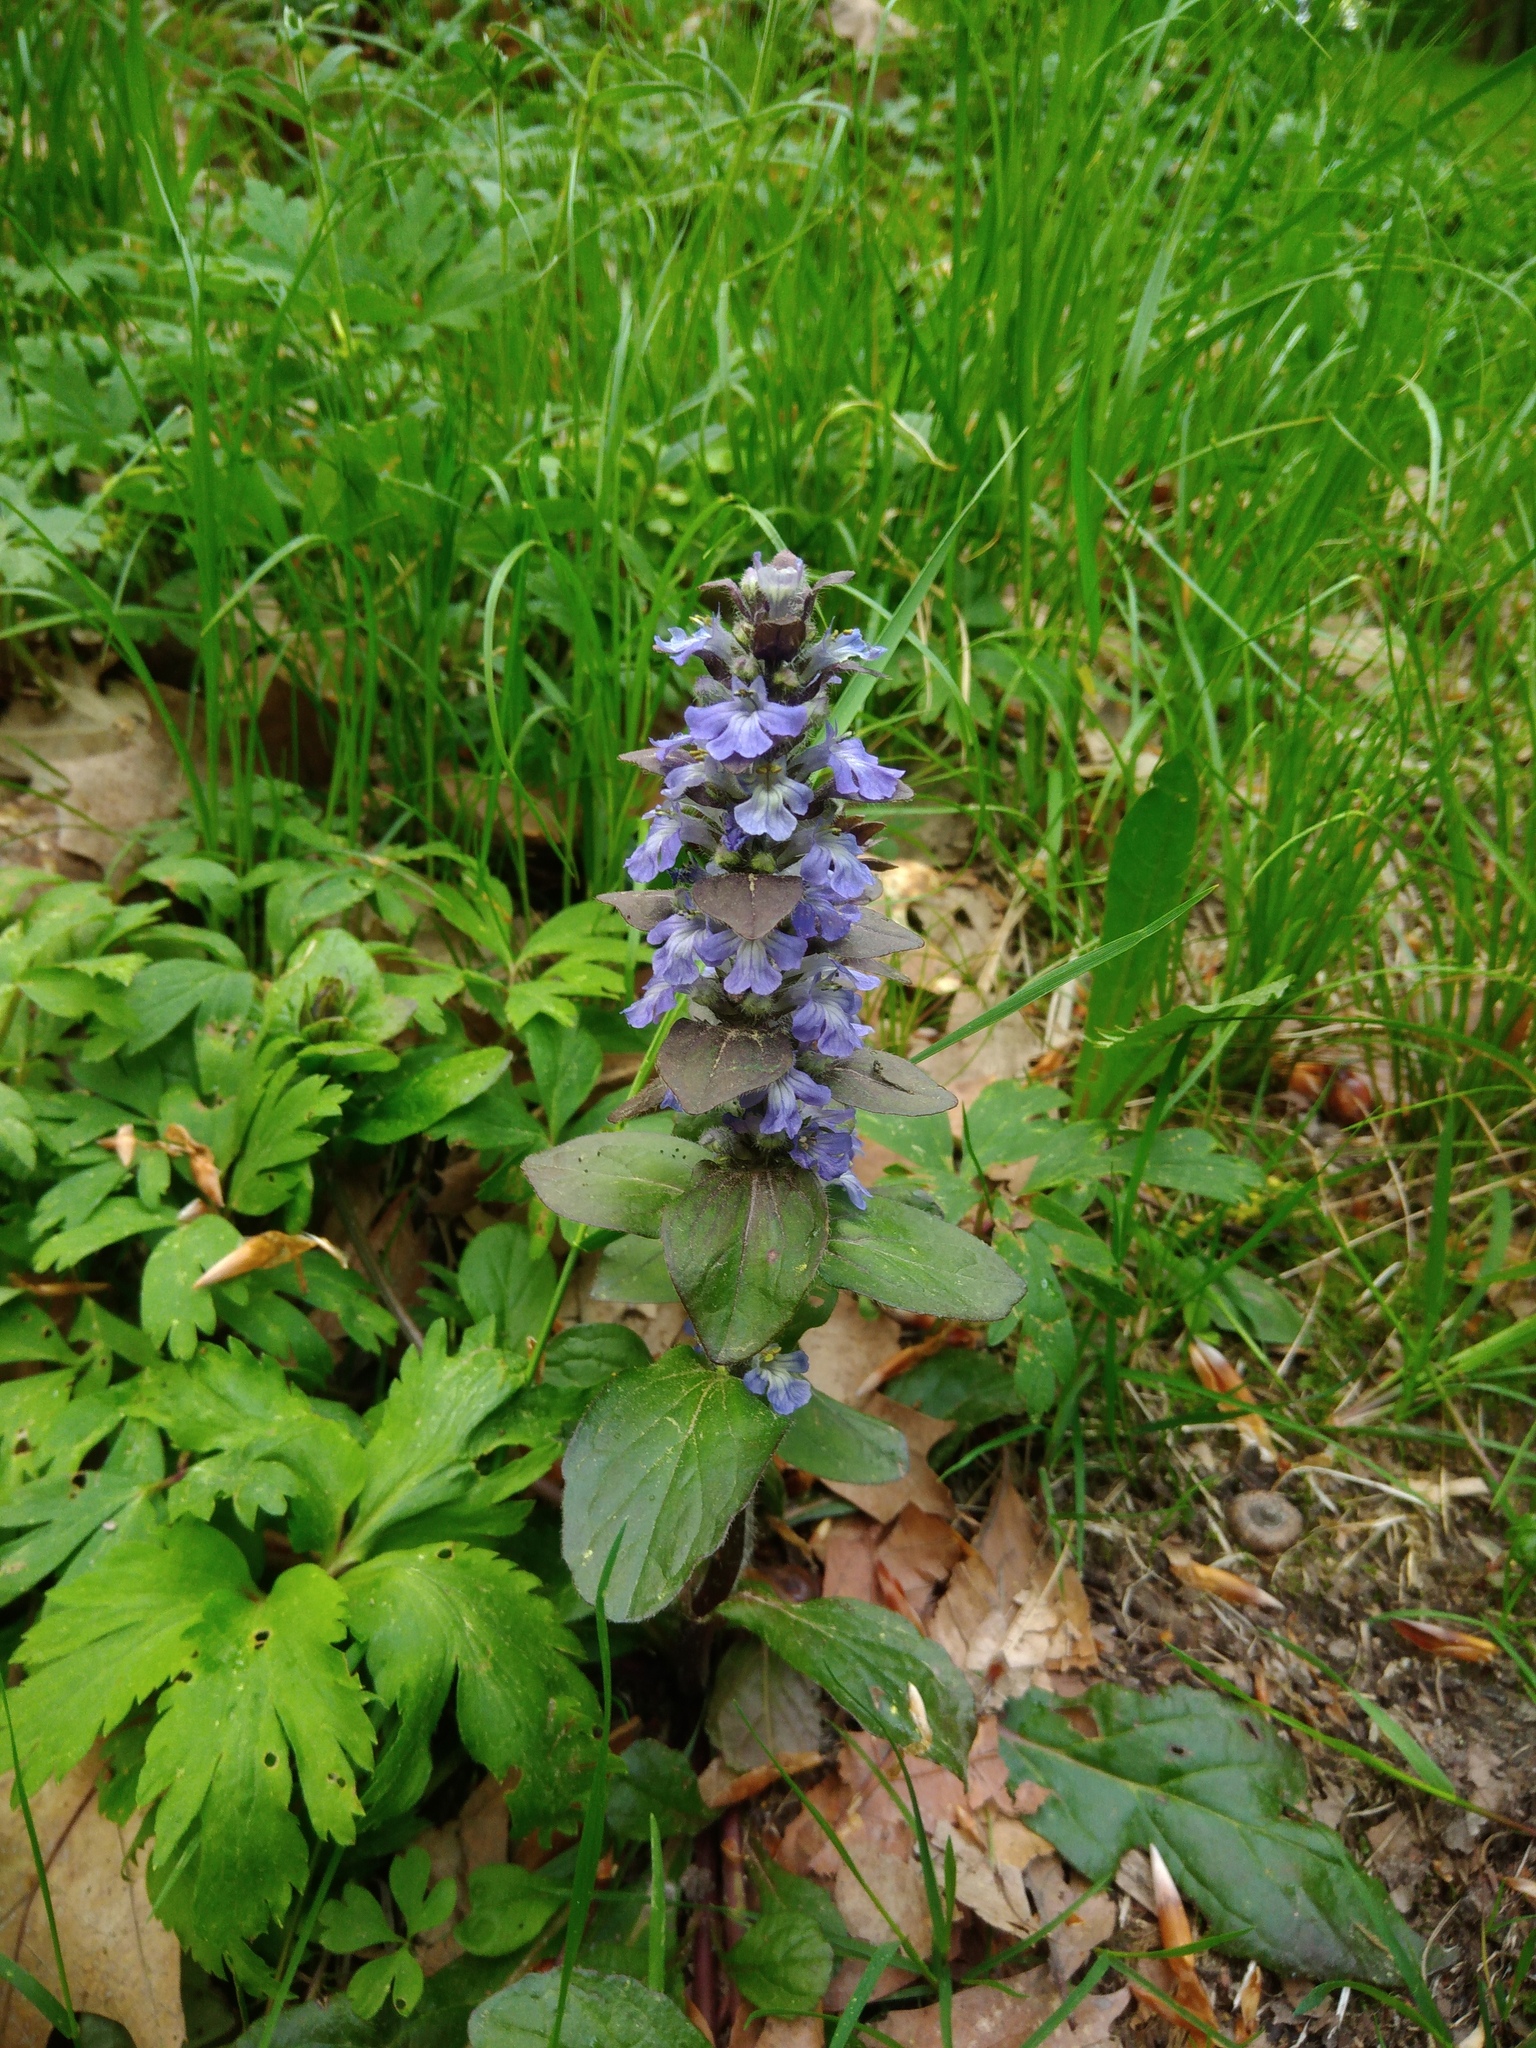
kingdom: Plantae
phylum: Tracheophyta
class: Magnoliopsida
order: Lamiales
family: Lamiaceae
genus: Ajuga
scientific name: Ajuga reptans
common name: Bugle
